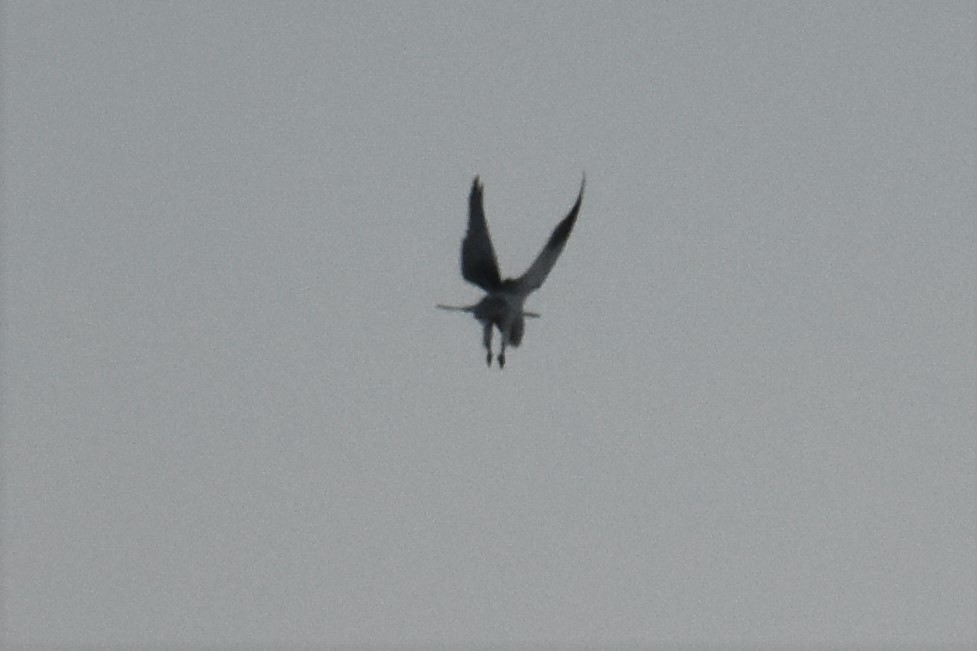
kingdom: Animalia
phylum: Chordata
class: Aves
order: Accipitriformes
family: Accipitridae
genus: Elanus
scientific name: Elanus caeruleus
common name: Black-winged kite
